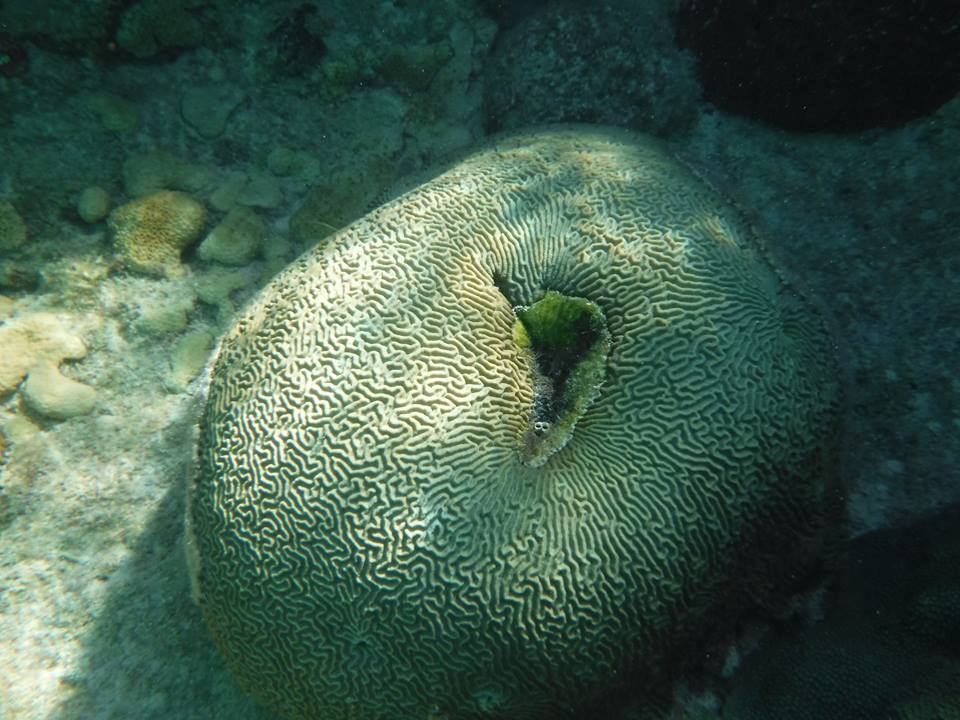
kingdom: Animalia
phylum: Cnidaria
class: Anthozoa
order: Scleractinia
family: Faviidae
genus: Pseudodiploria
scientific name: Pseudodiploria strigosa
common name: Symmetrical brain coral
